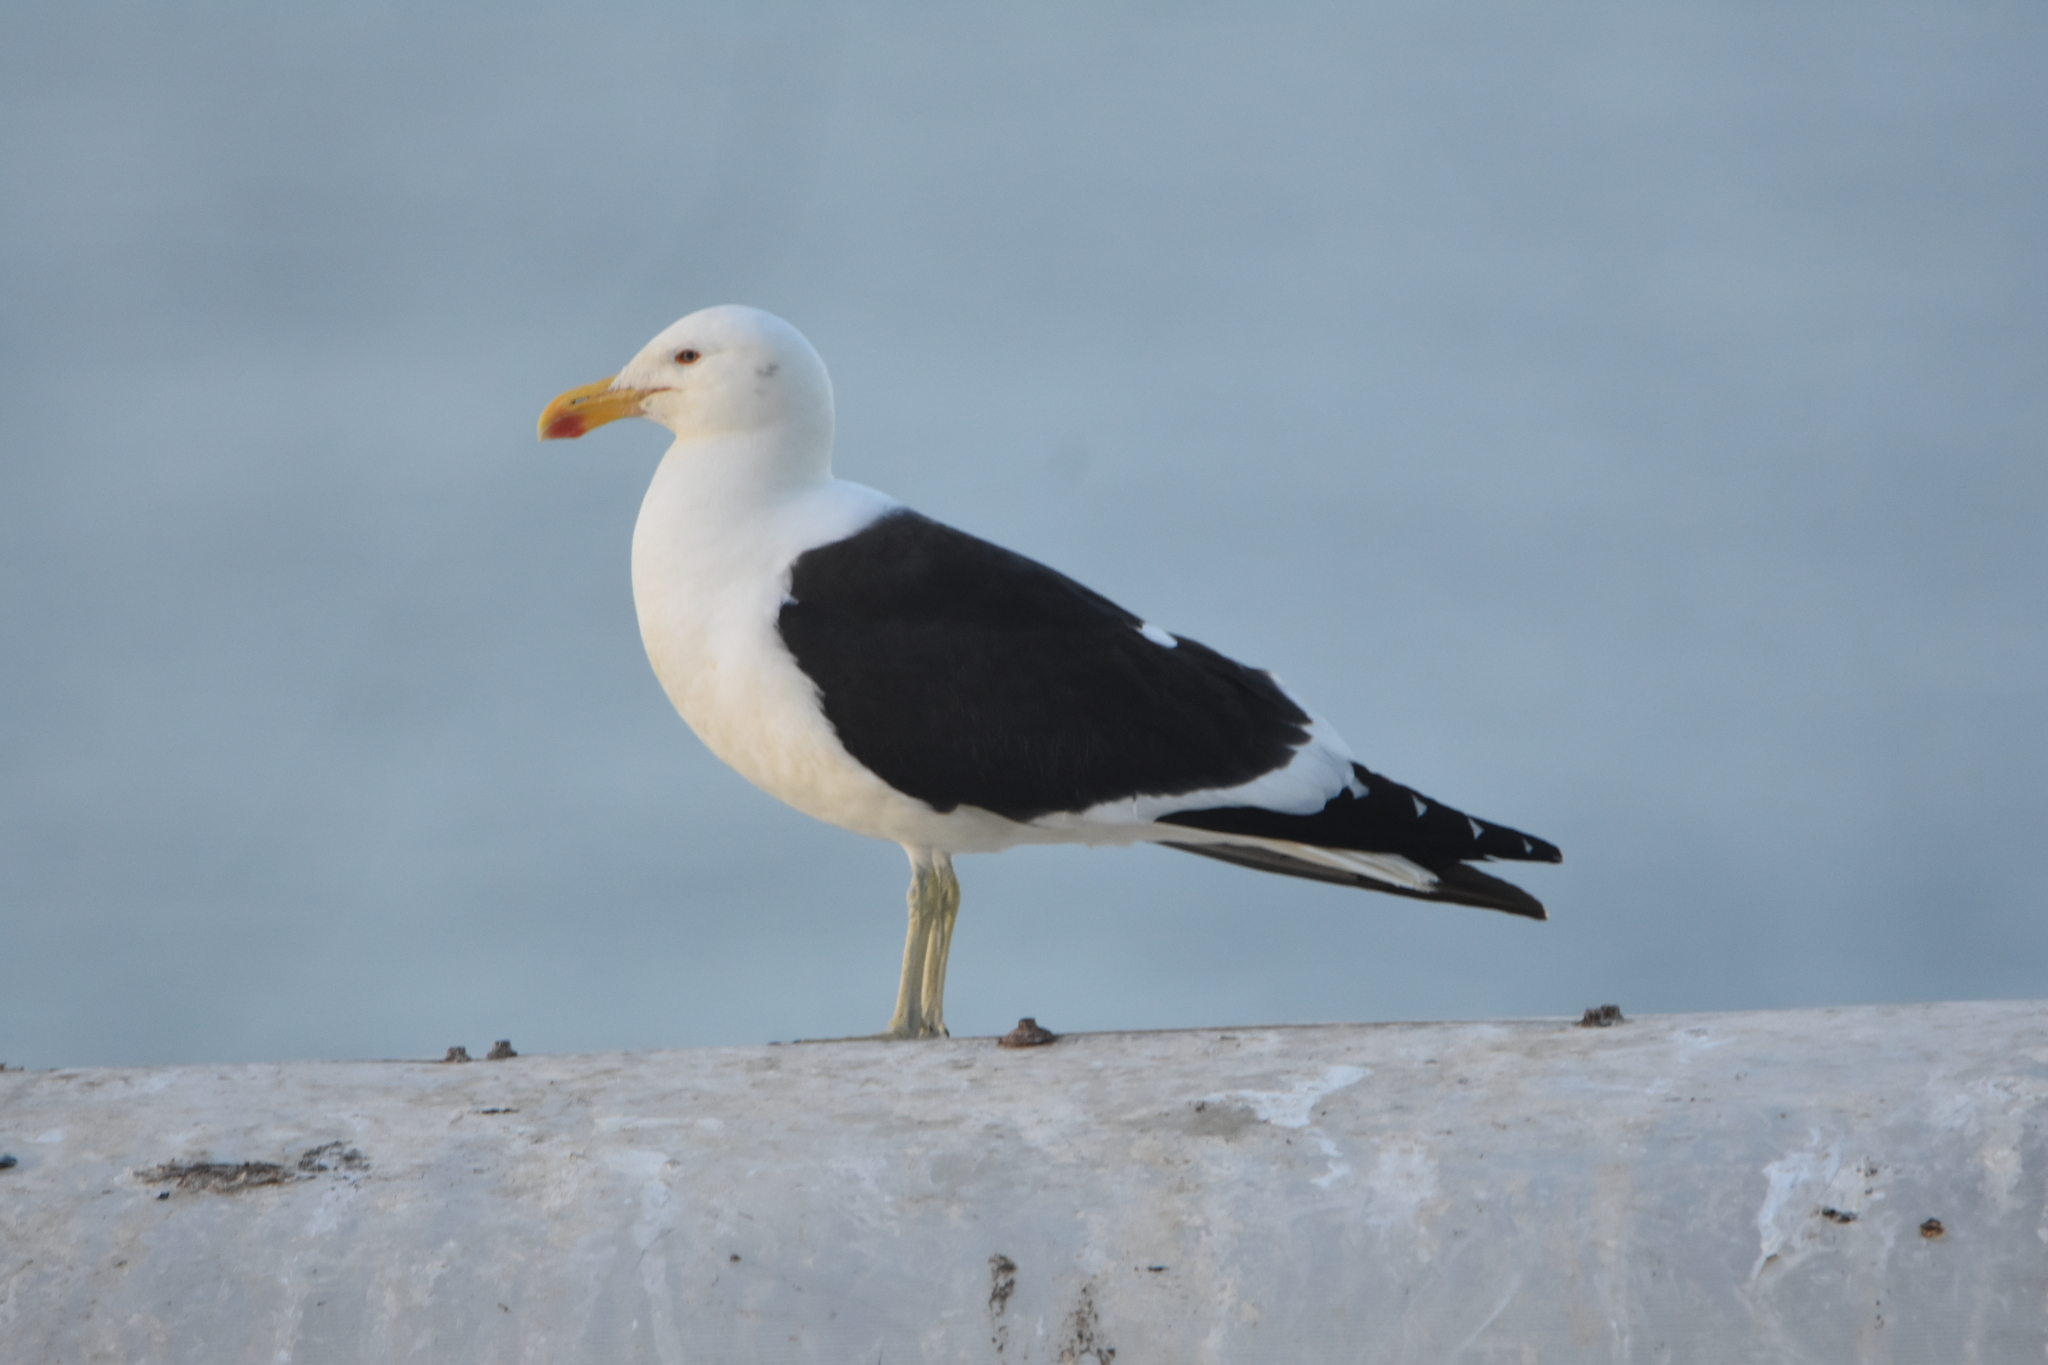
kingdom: Animalia
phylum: Chordata
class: Aves
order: Charadriiformes
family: Laridae
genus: Larus
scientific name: Larus dominicanus
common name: Kelp gull
